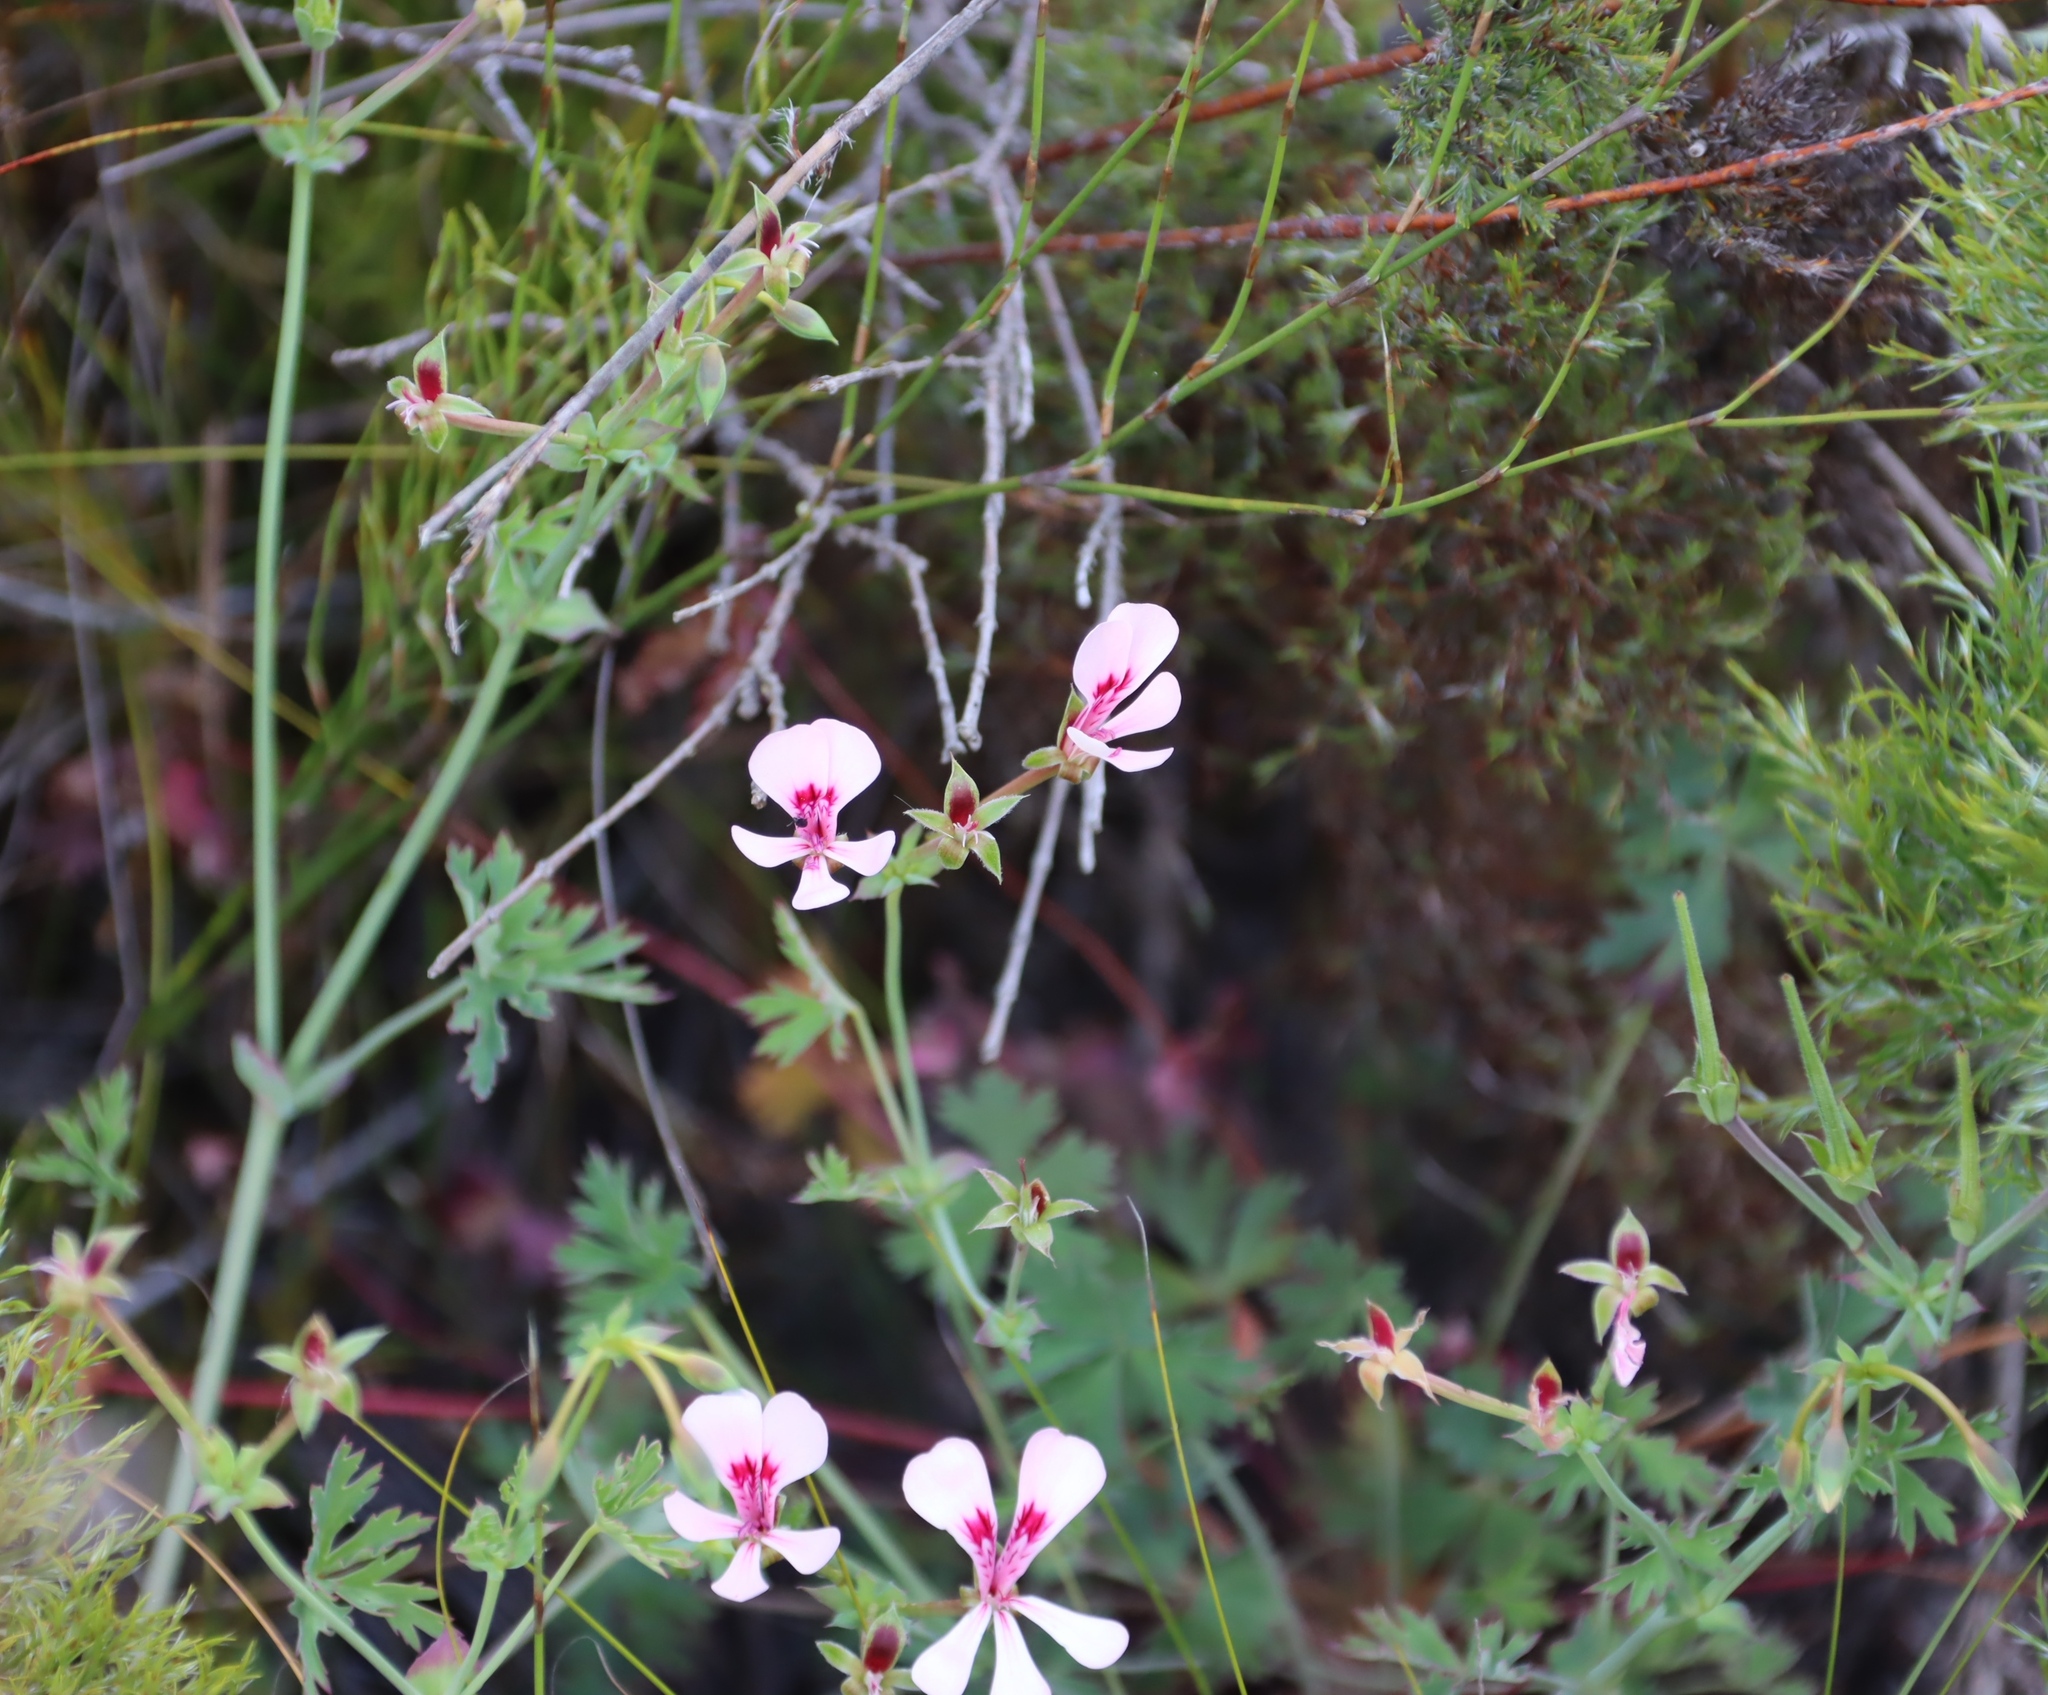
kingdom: Plantae
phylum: Tracheophyta
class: Magnoliopsida
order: Geraniales
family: Geraniaceae
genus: Pelargonium
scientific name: Pelargonium patulum
